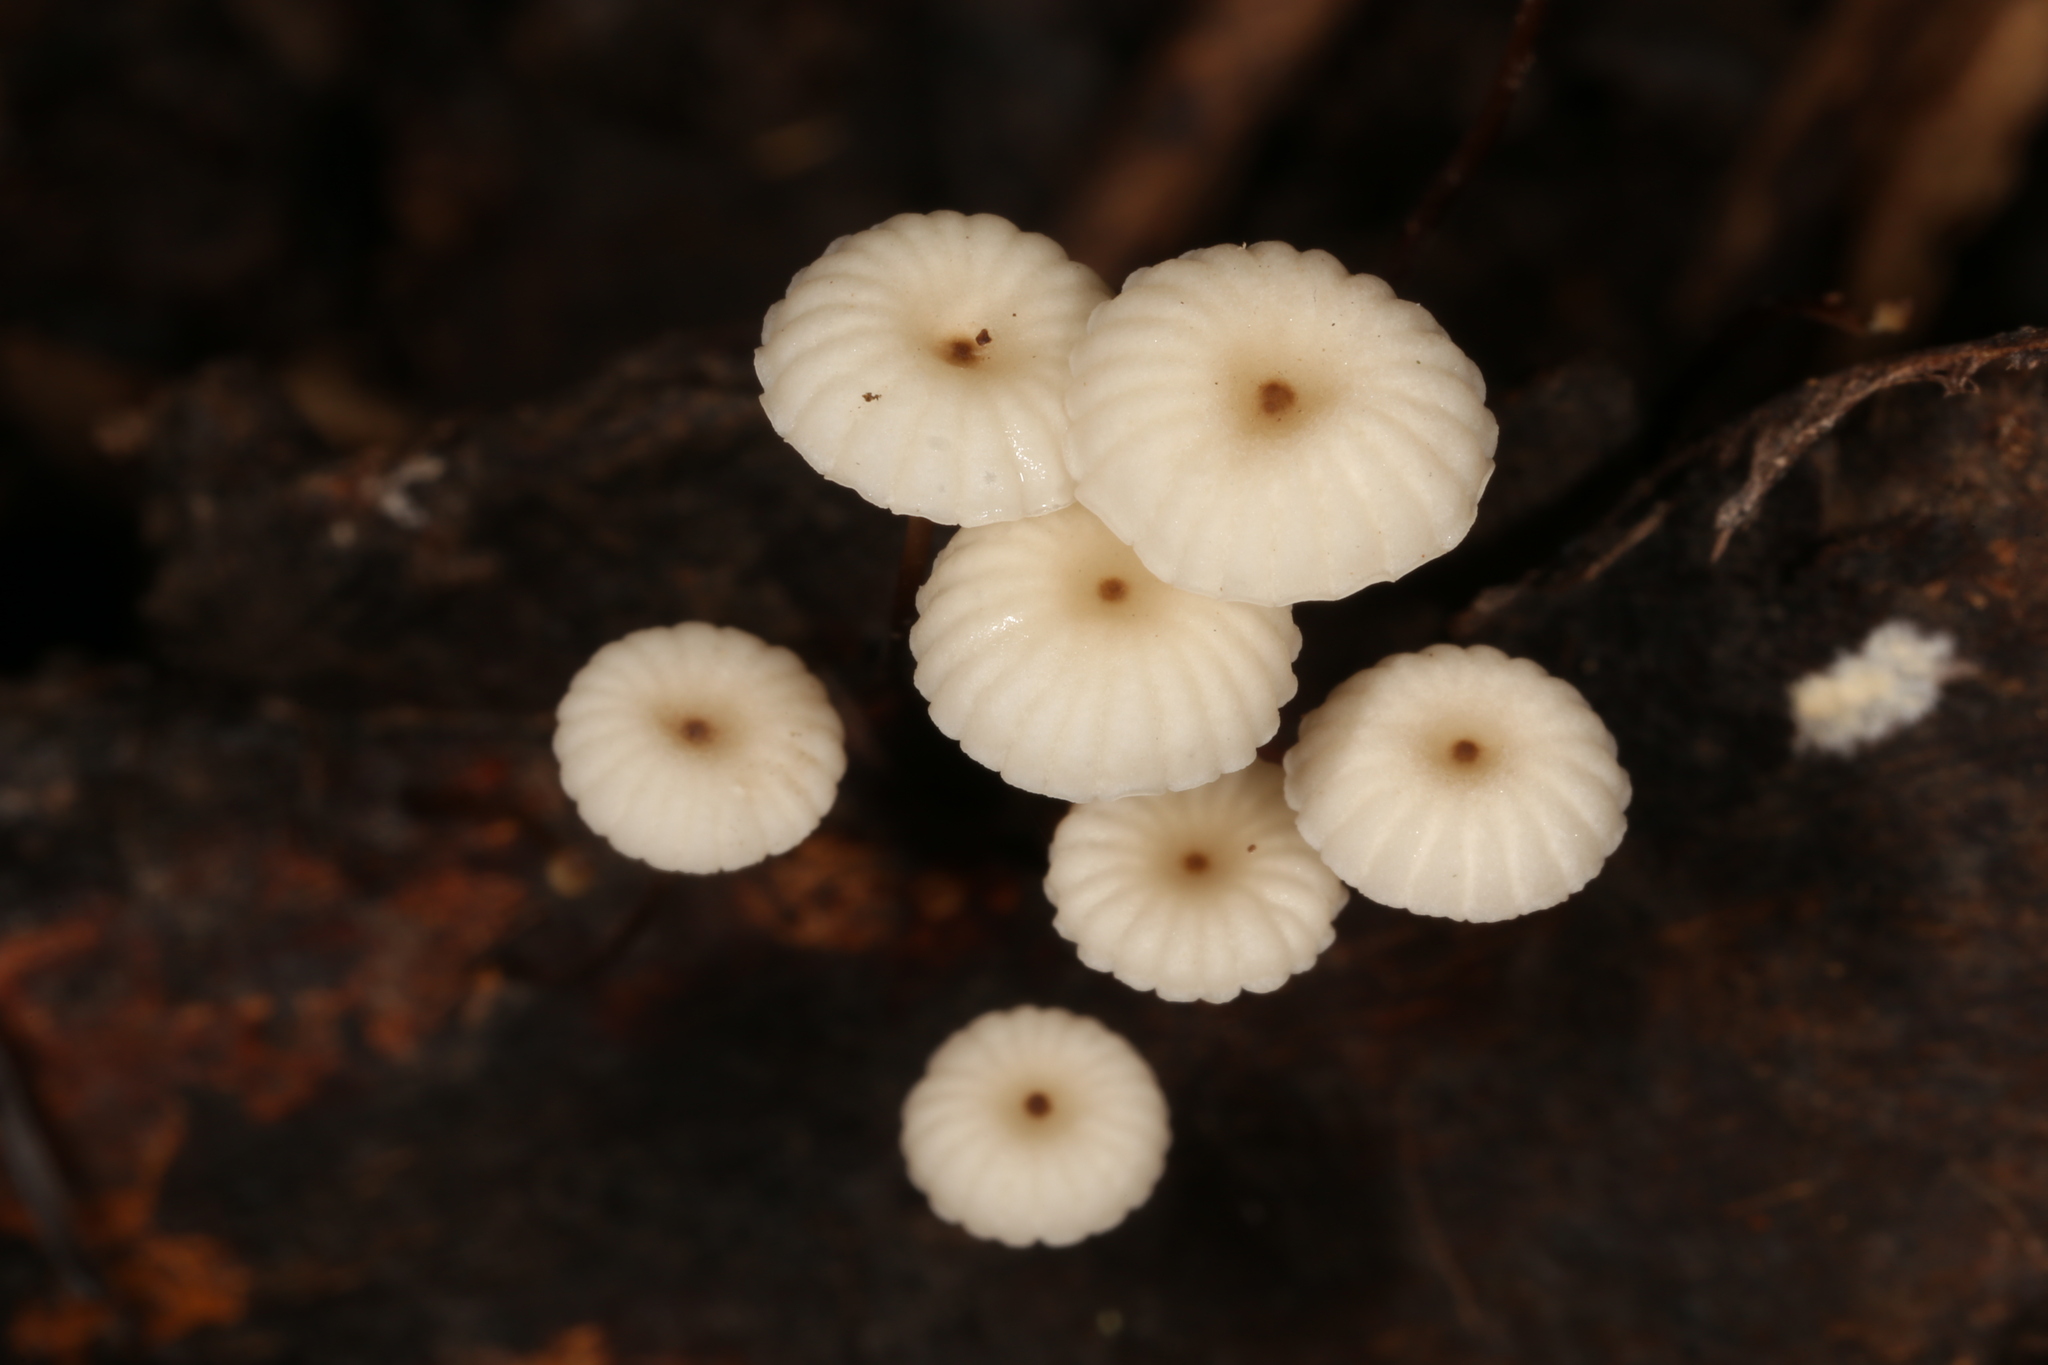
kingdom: Fungi
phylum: Basidiomycota
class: Agaricomycetes
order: Agaricales
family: Marasmiaceae
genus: Marasmius
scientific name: Marasmius rotula
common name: Collared parachute
